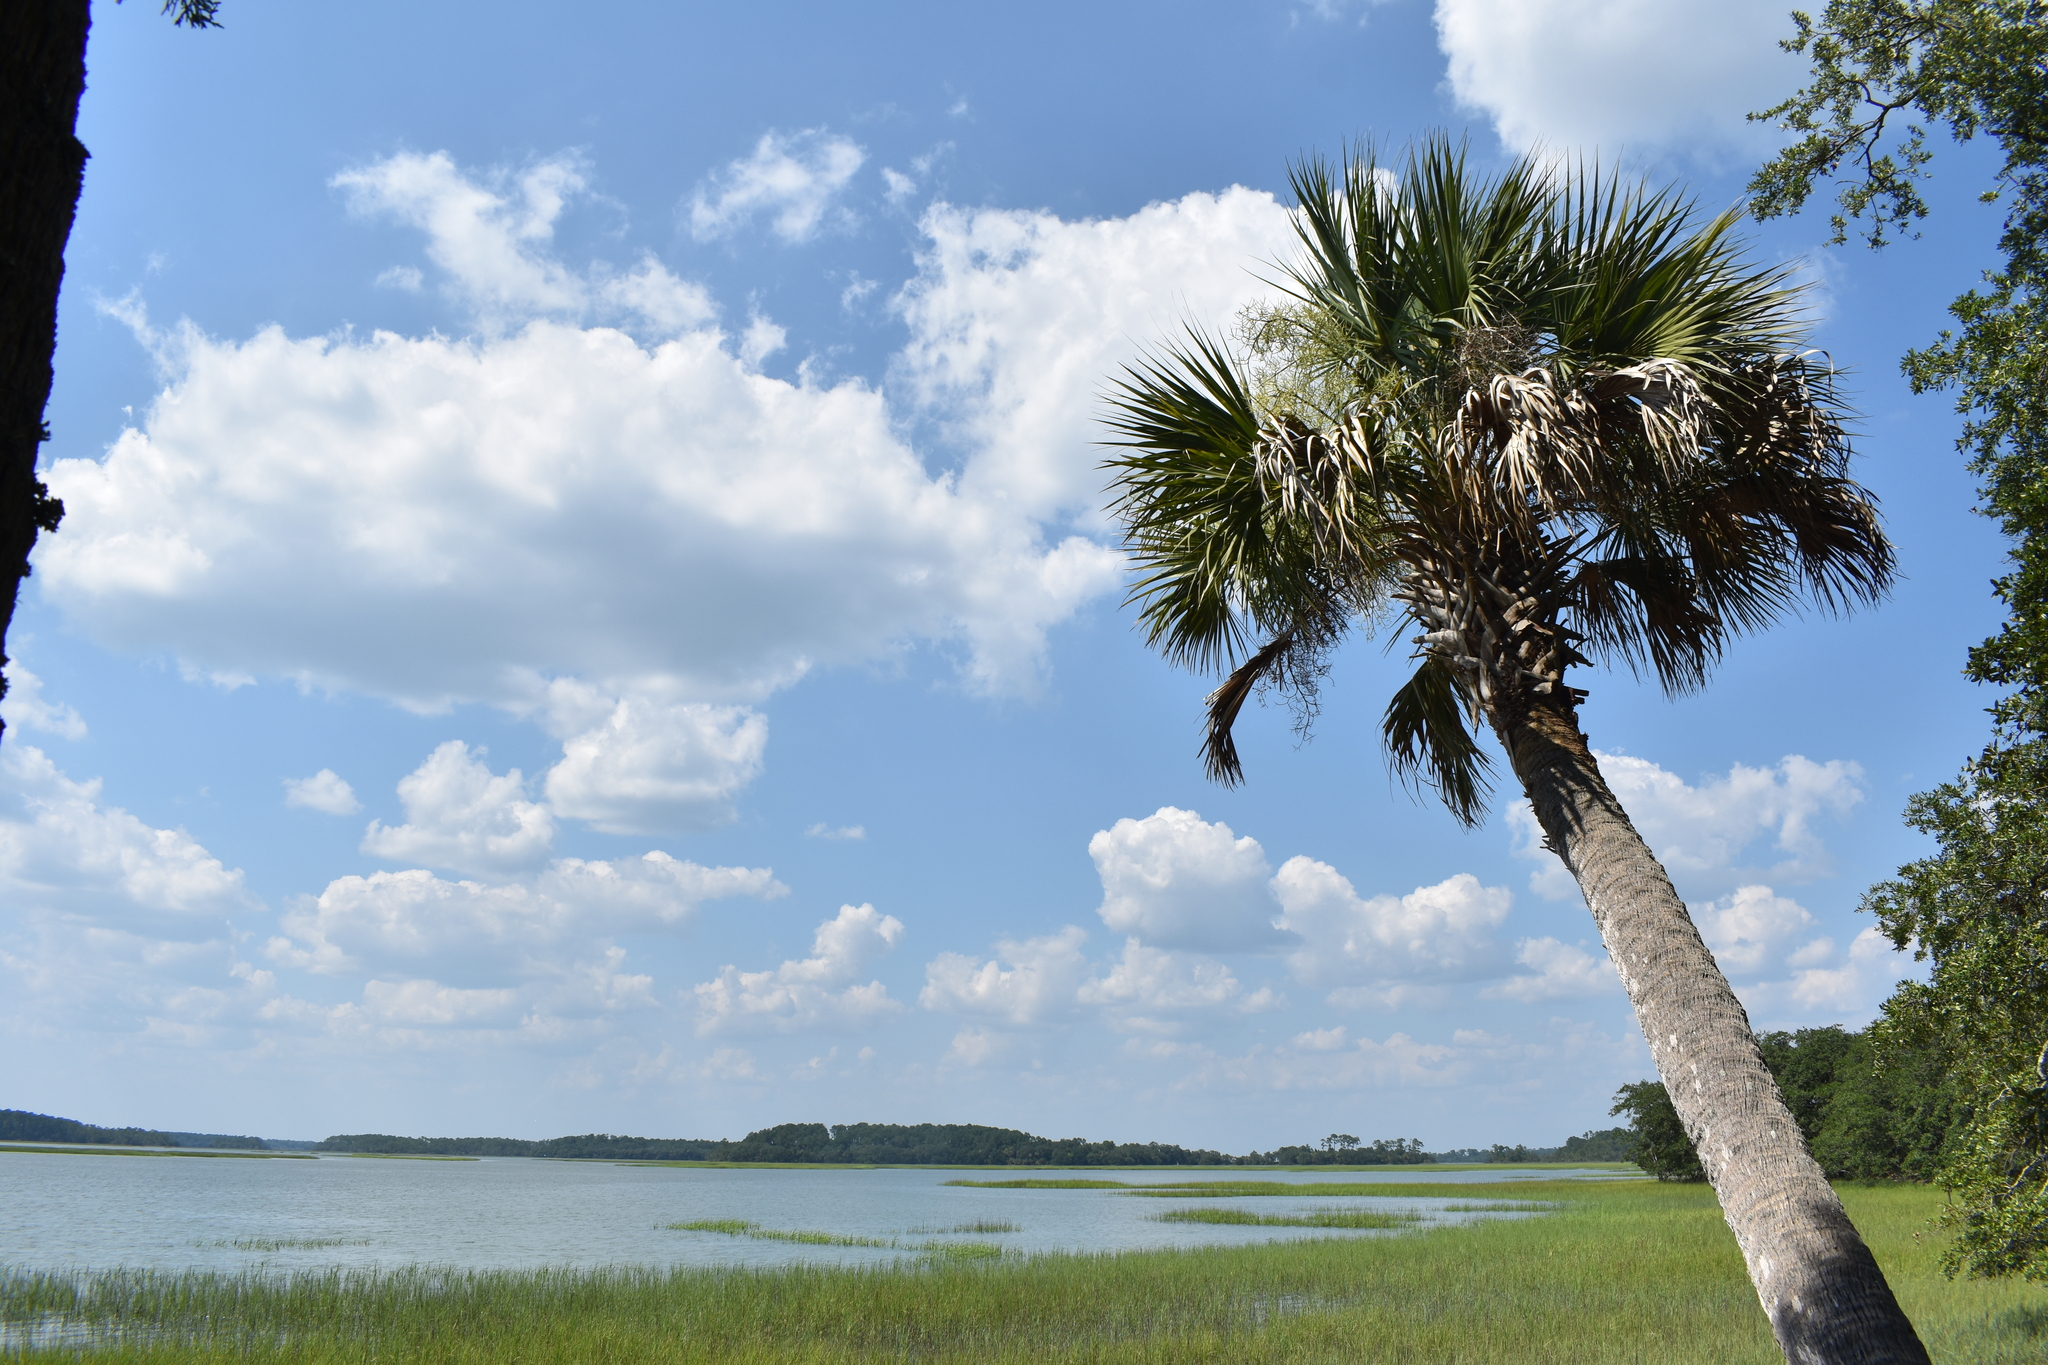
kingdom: Plantae
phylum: Tracheophyta
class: Liliopsida
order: Arecales
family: Arecaceae
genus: Sabal
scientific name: Sabal palmetto
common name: Blue palmetto
